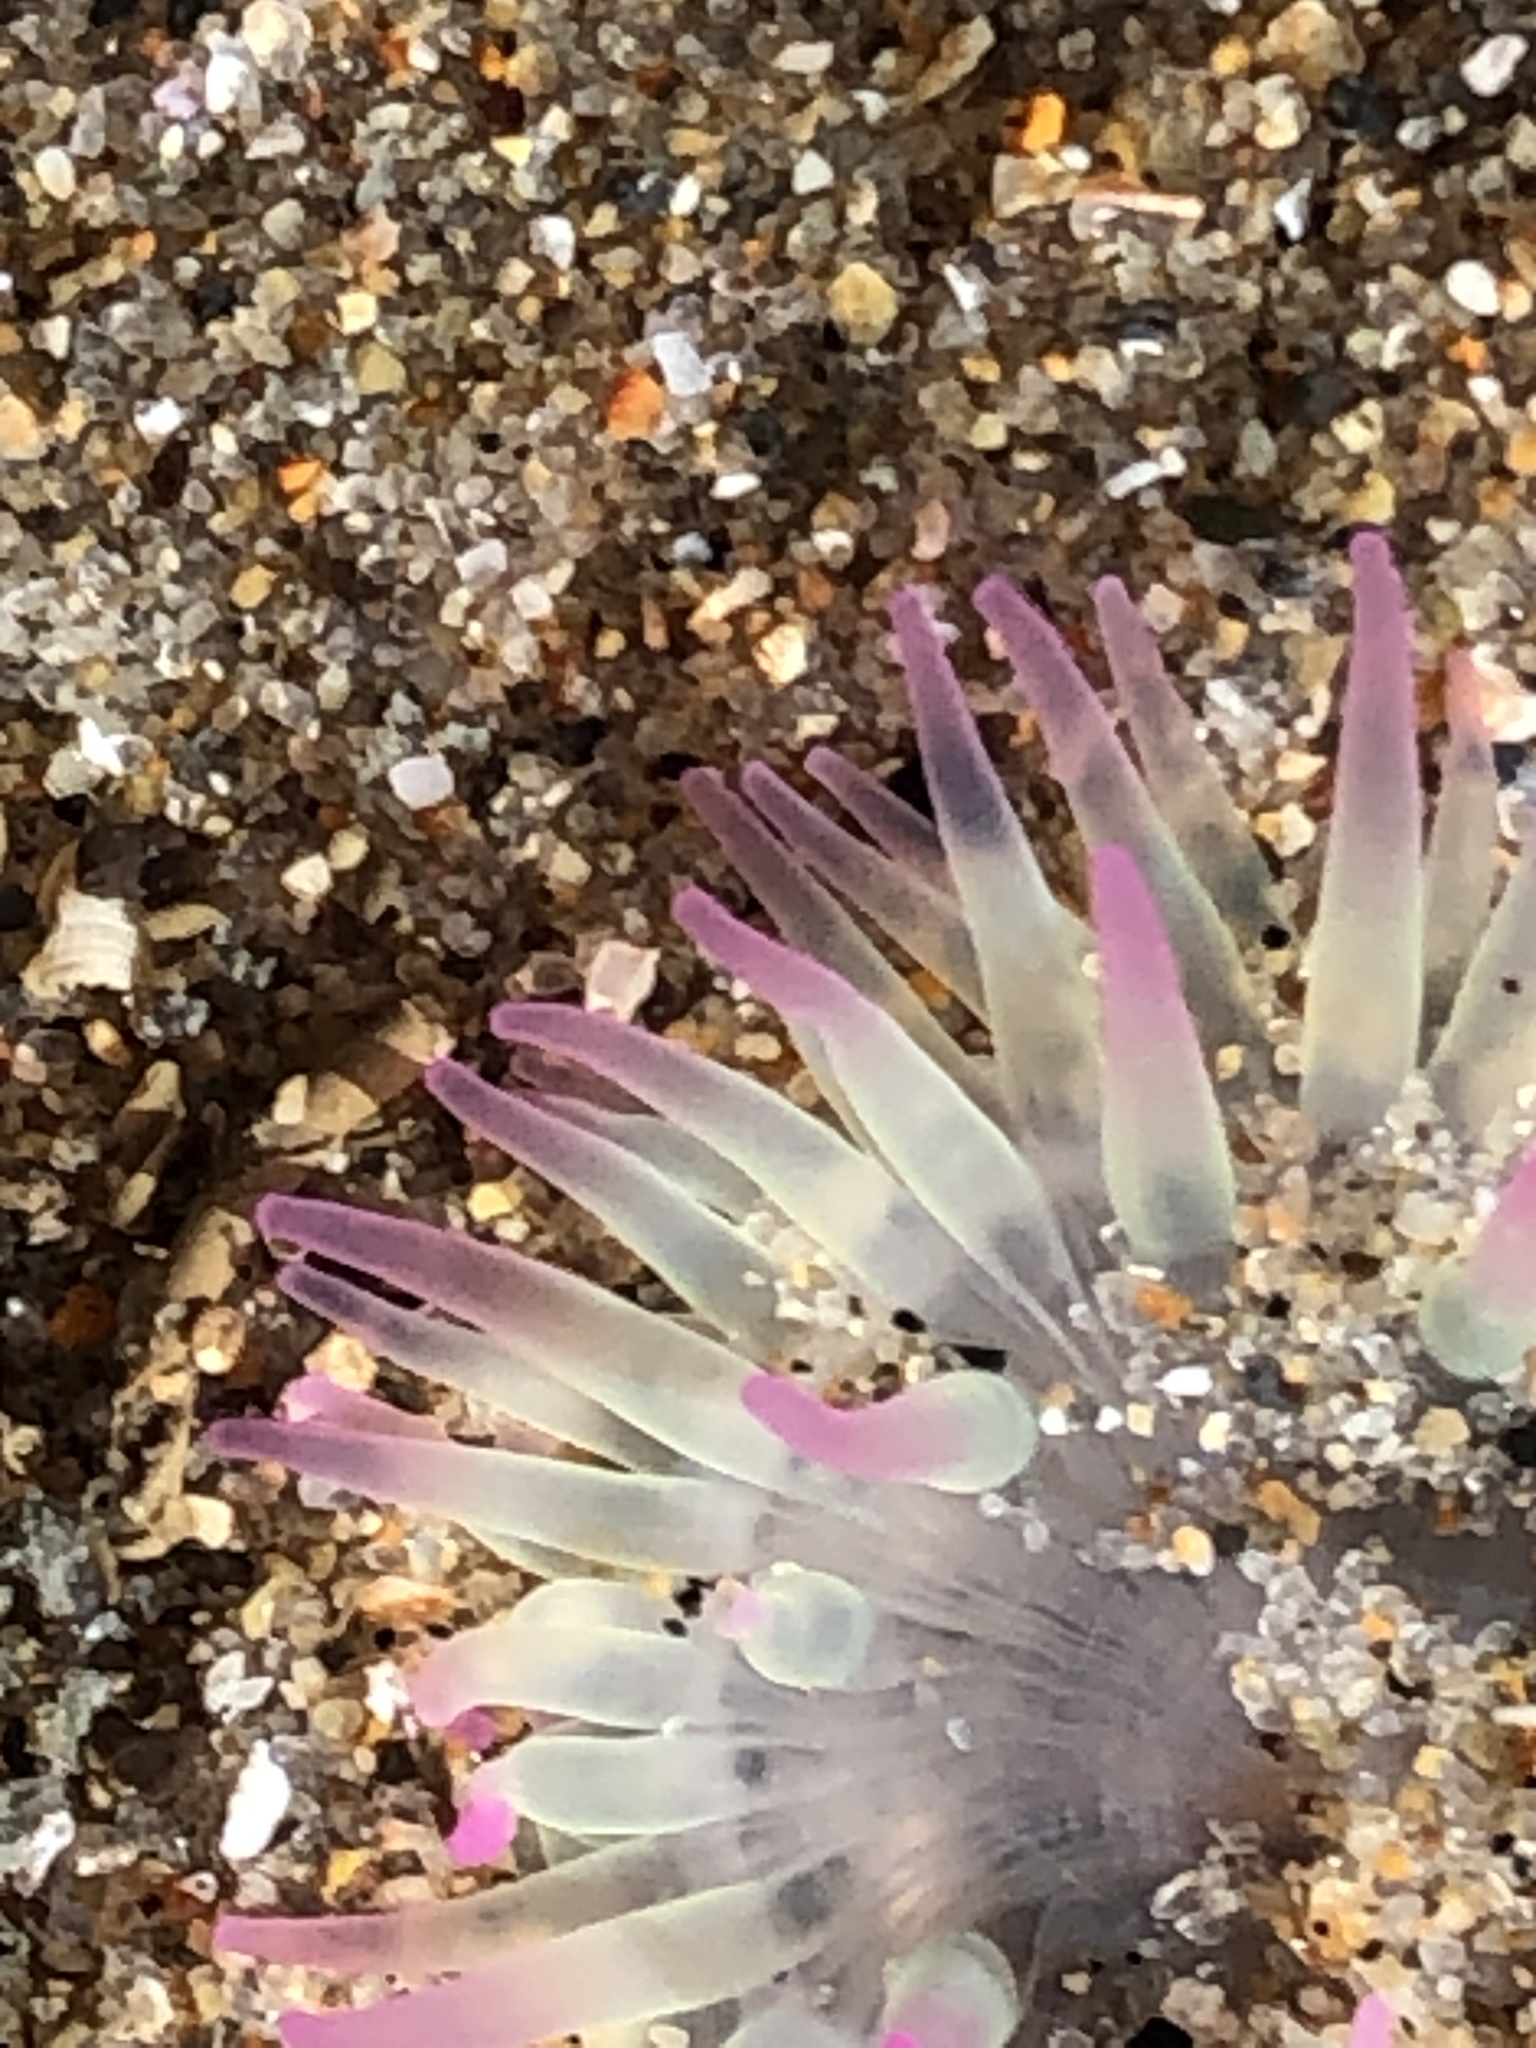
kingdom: Animalia
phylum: Cnidaria
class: Anthozoa
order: Actiniaria
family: Actiniidae
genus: Anthopleura
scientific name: Anthopleura elegantissima
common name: Clonal anemone
